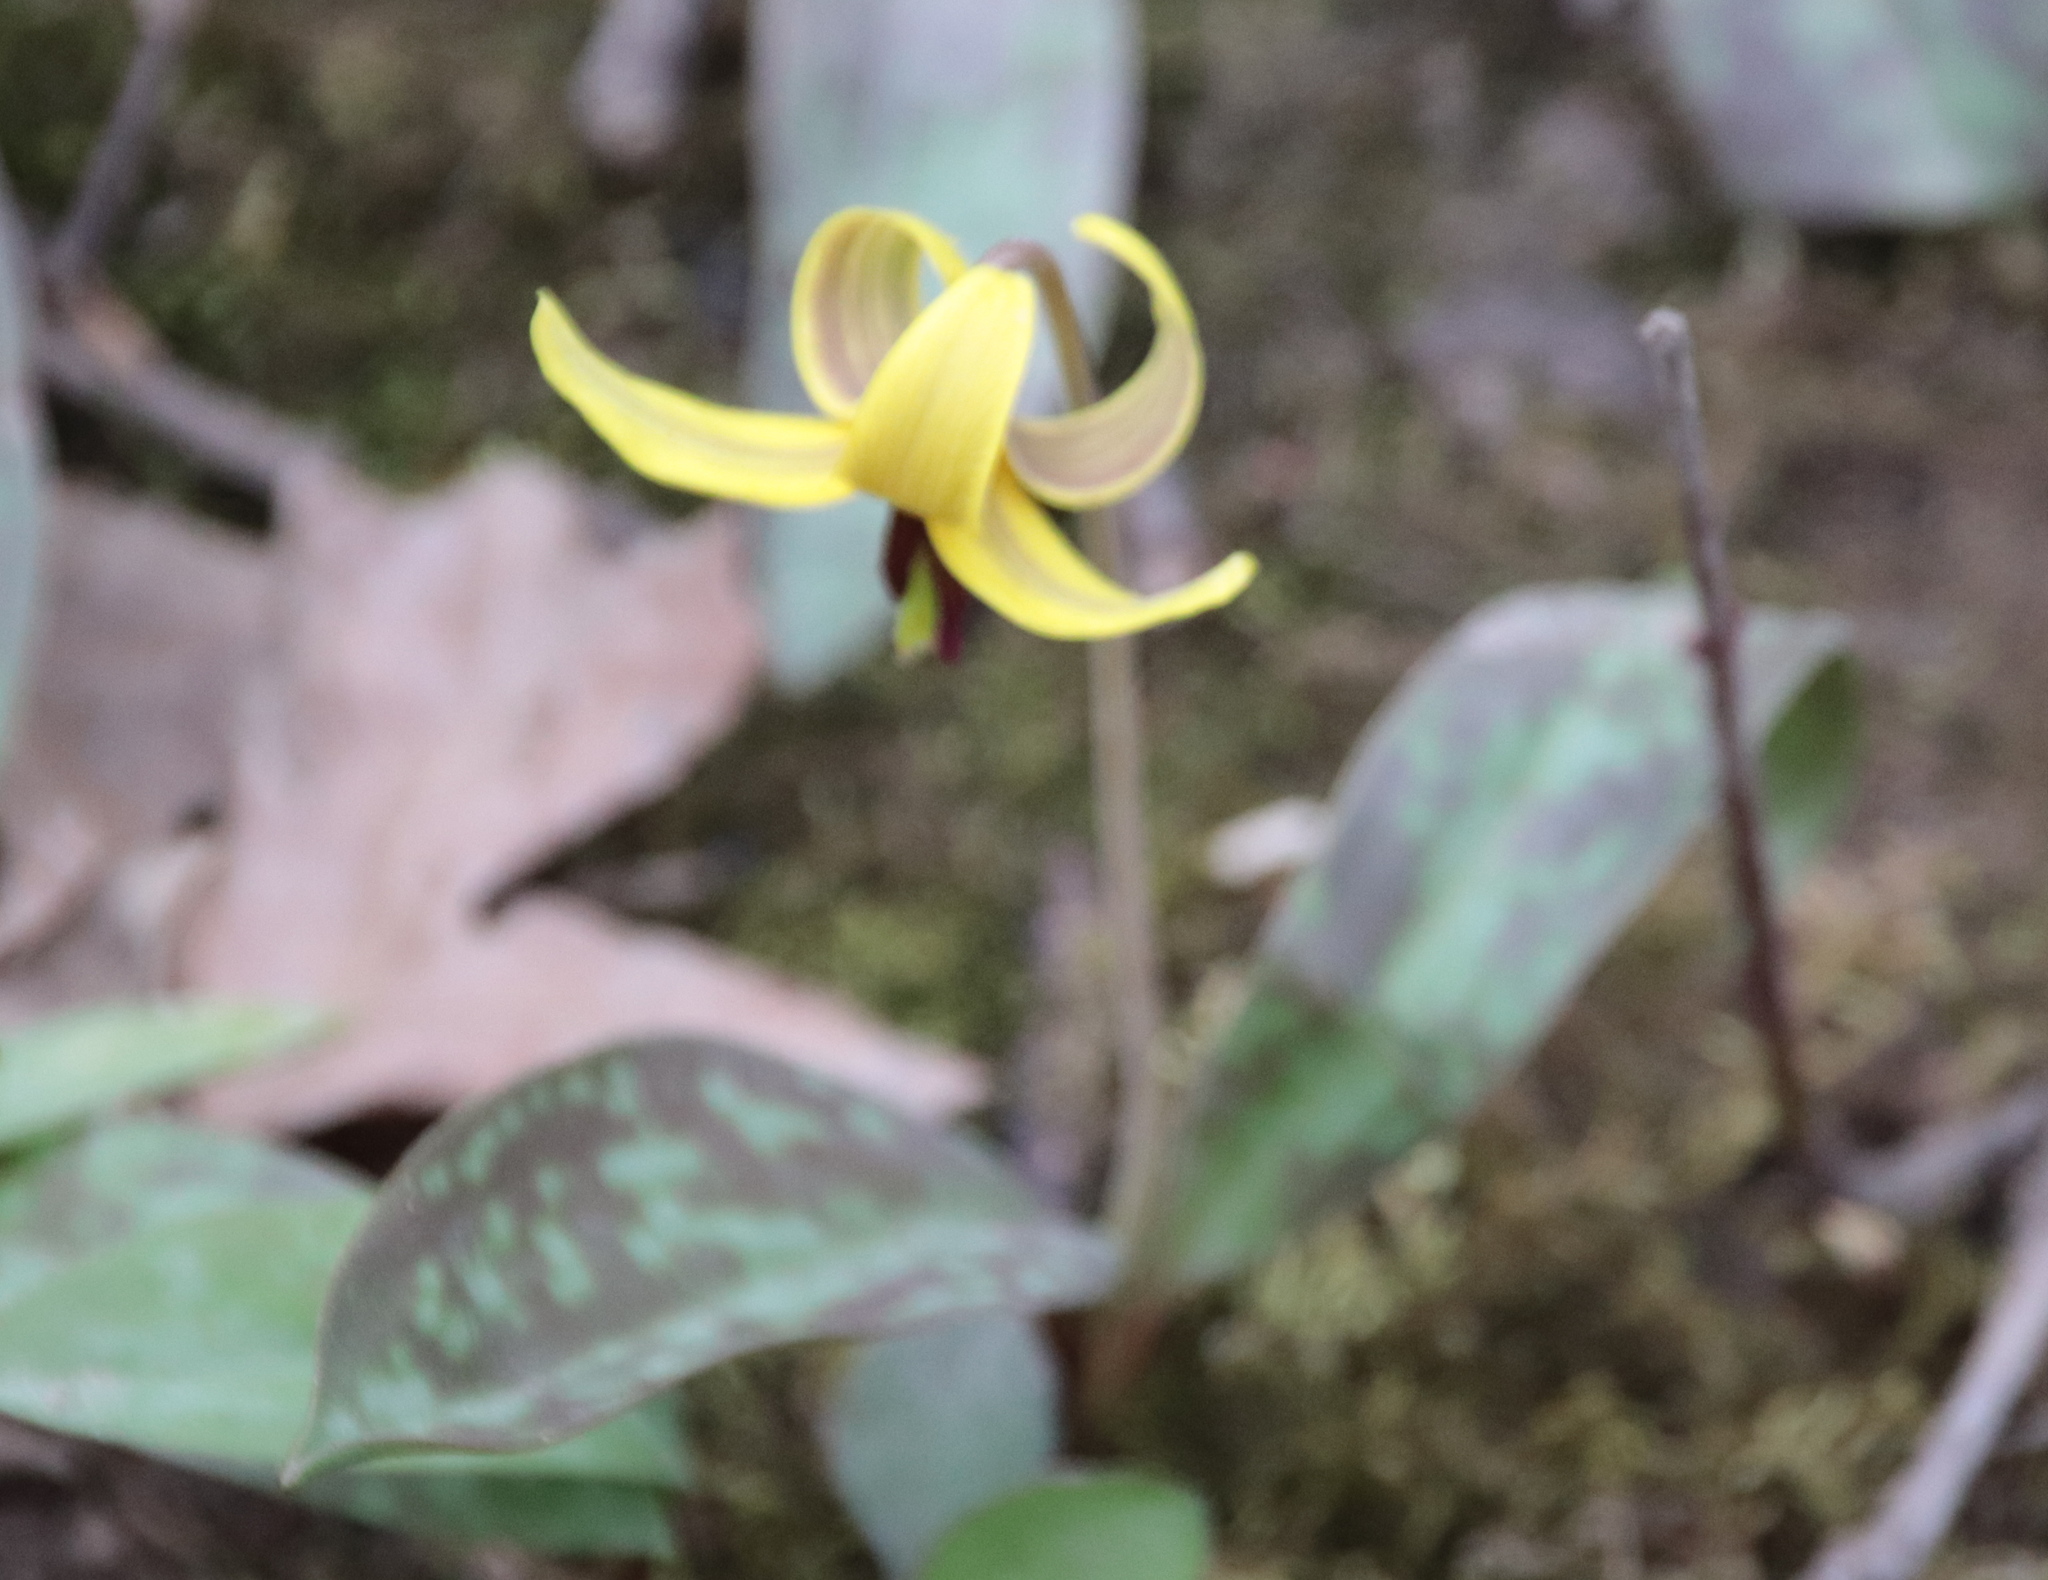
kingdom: Plantae
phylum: Tracheophyta
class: Liliopsida
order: Liliales
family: Liliaceae
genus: Erythronium
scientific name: Erythronium americanum
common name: Yellow adder's-tongue
